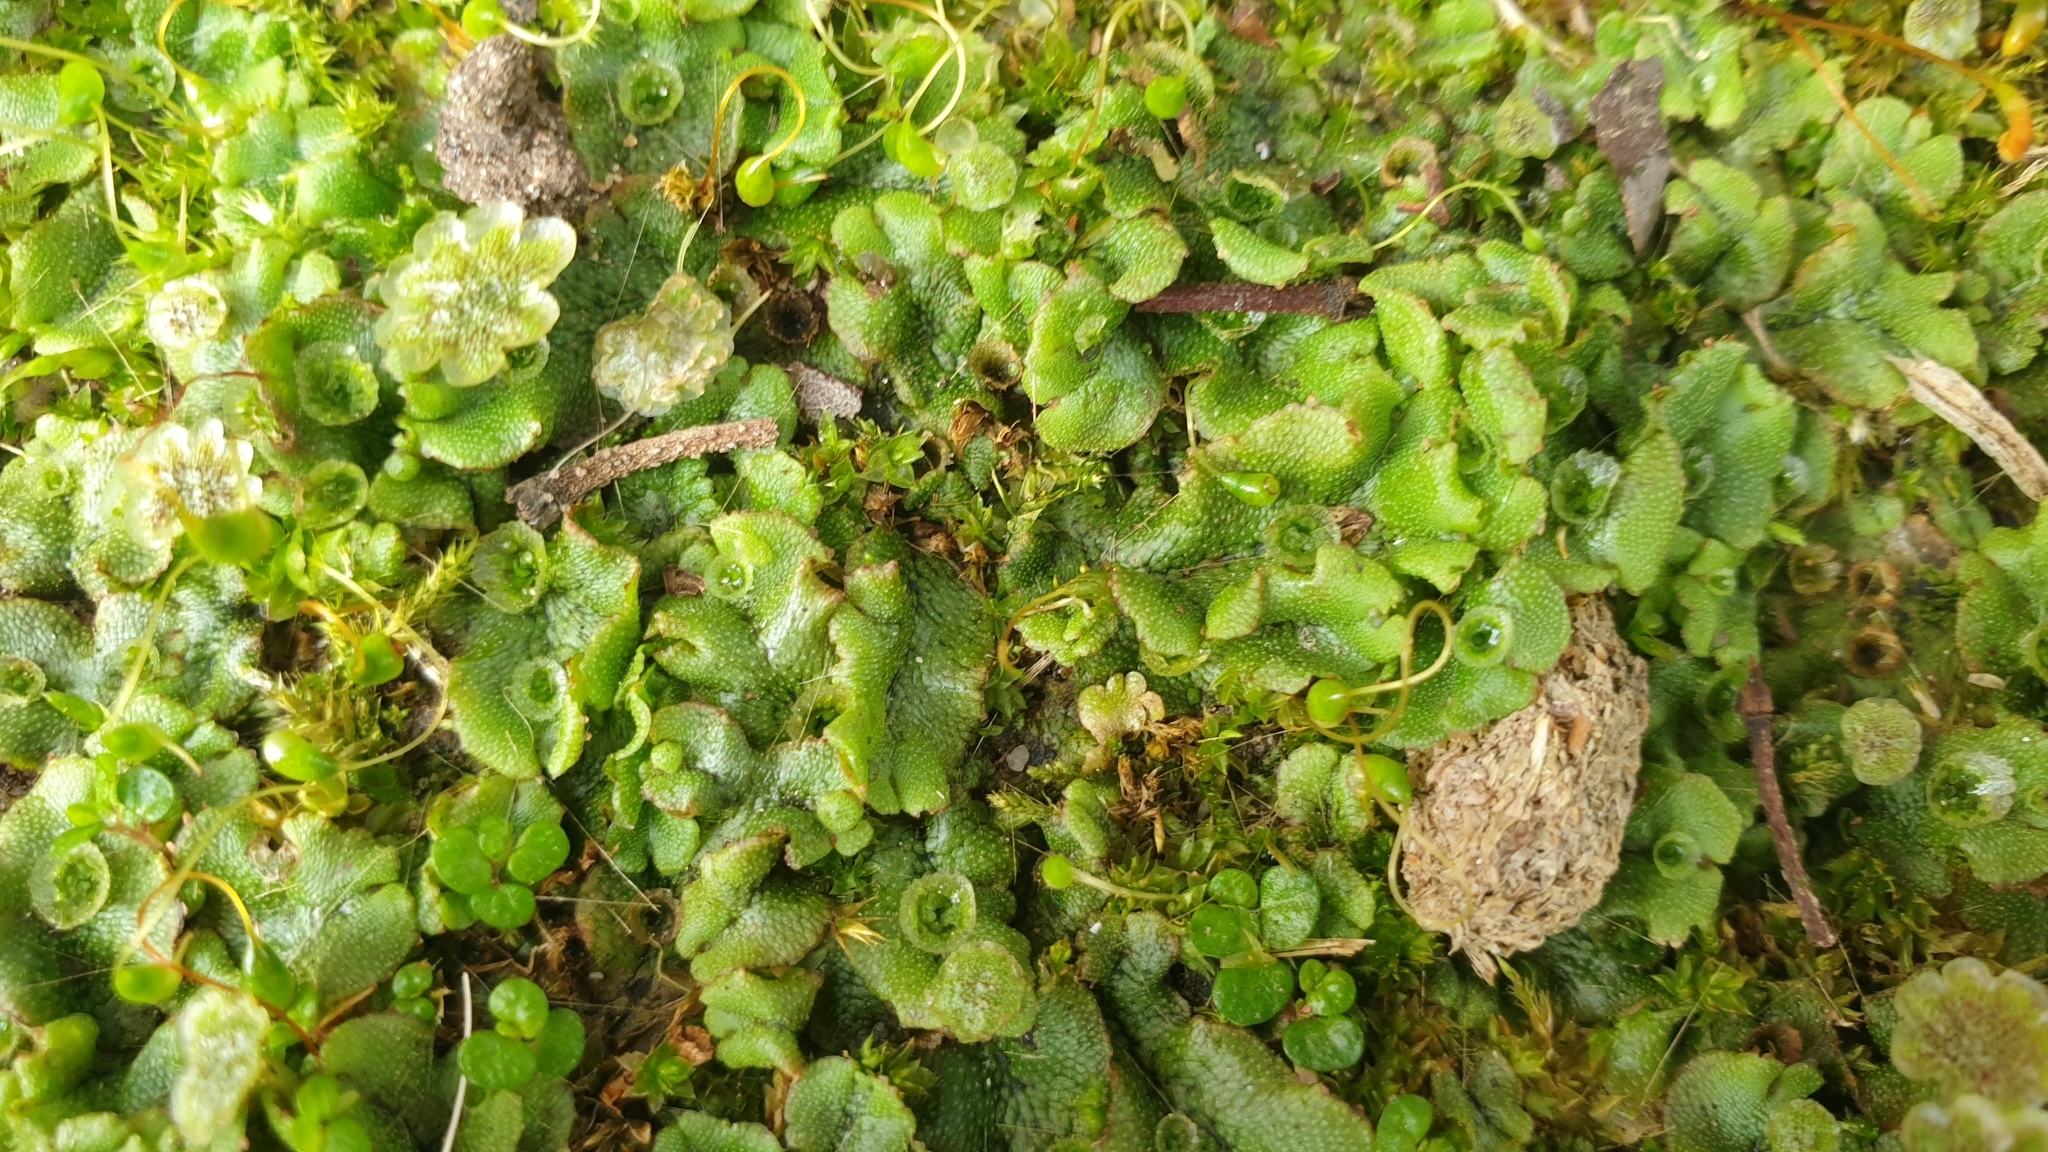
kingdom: Plantae
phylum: Marchantiophyta
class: Marchantiopsida
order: Marchantiales
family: Marchantiaceae
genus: Marchantia
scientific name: Marchantia polymorpha
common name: Common liverwort
